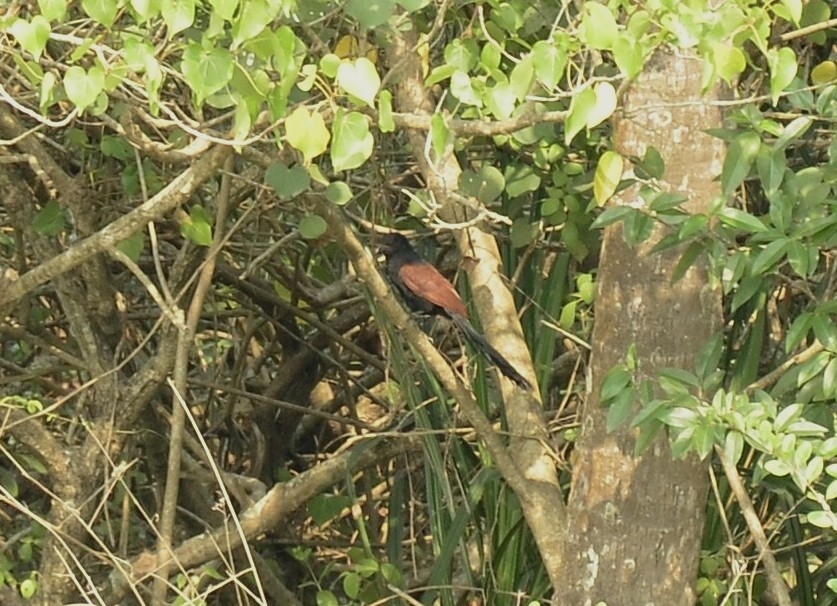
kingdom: Animalia
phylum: Chordata
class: Aves
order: Cuculiformes
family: Cuculidae
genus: Centropus
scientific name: Centropus sinensis
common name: Greater coucal
